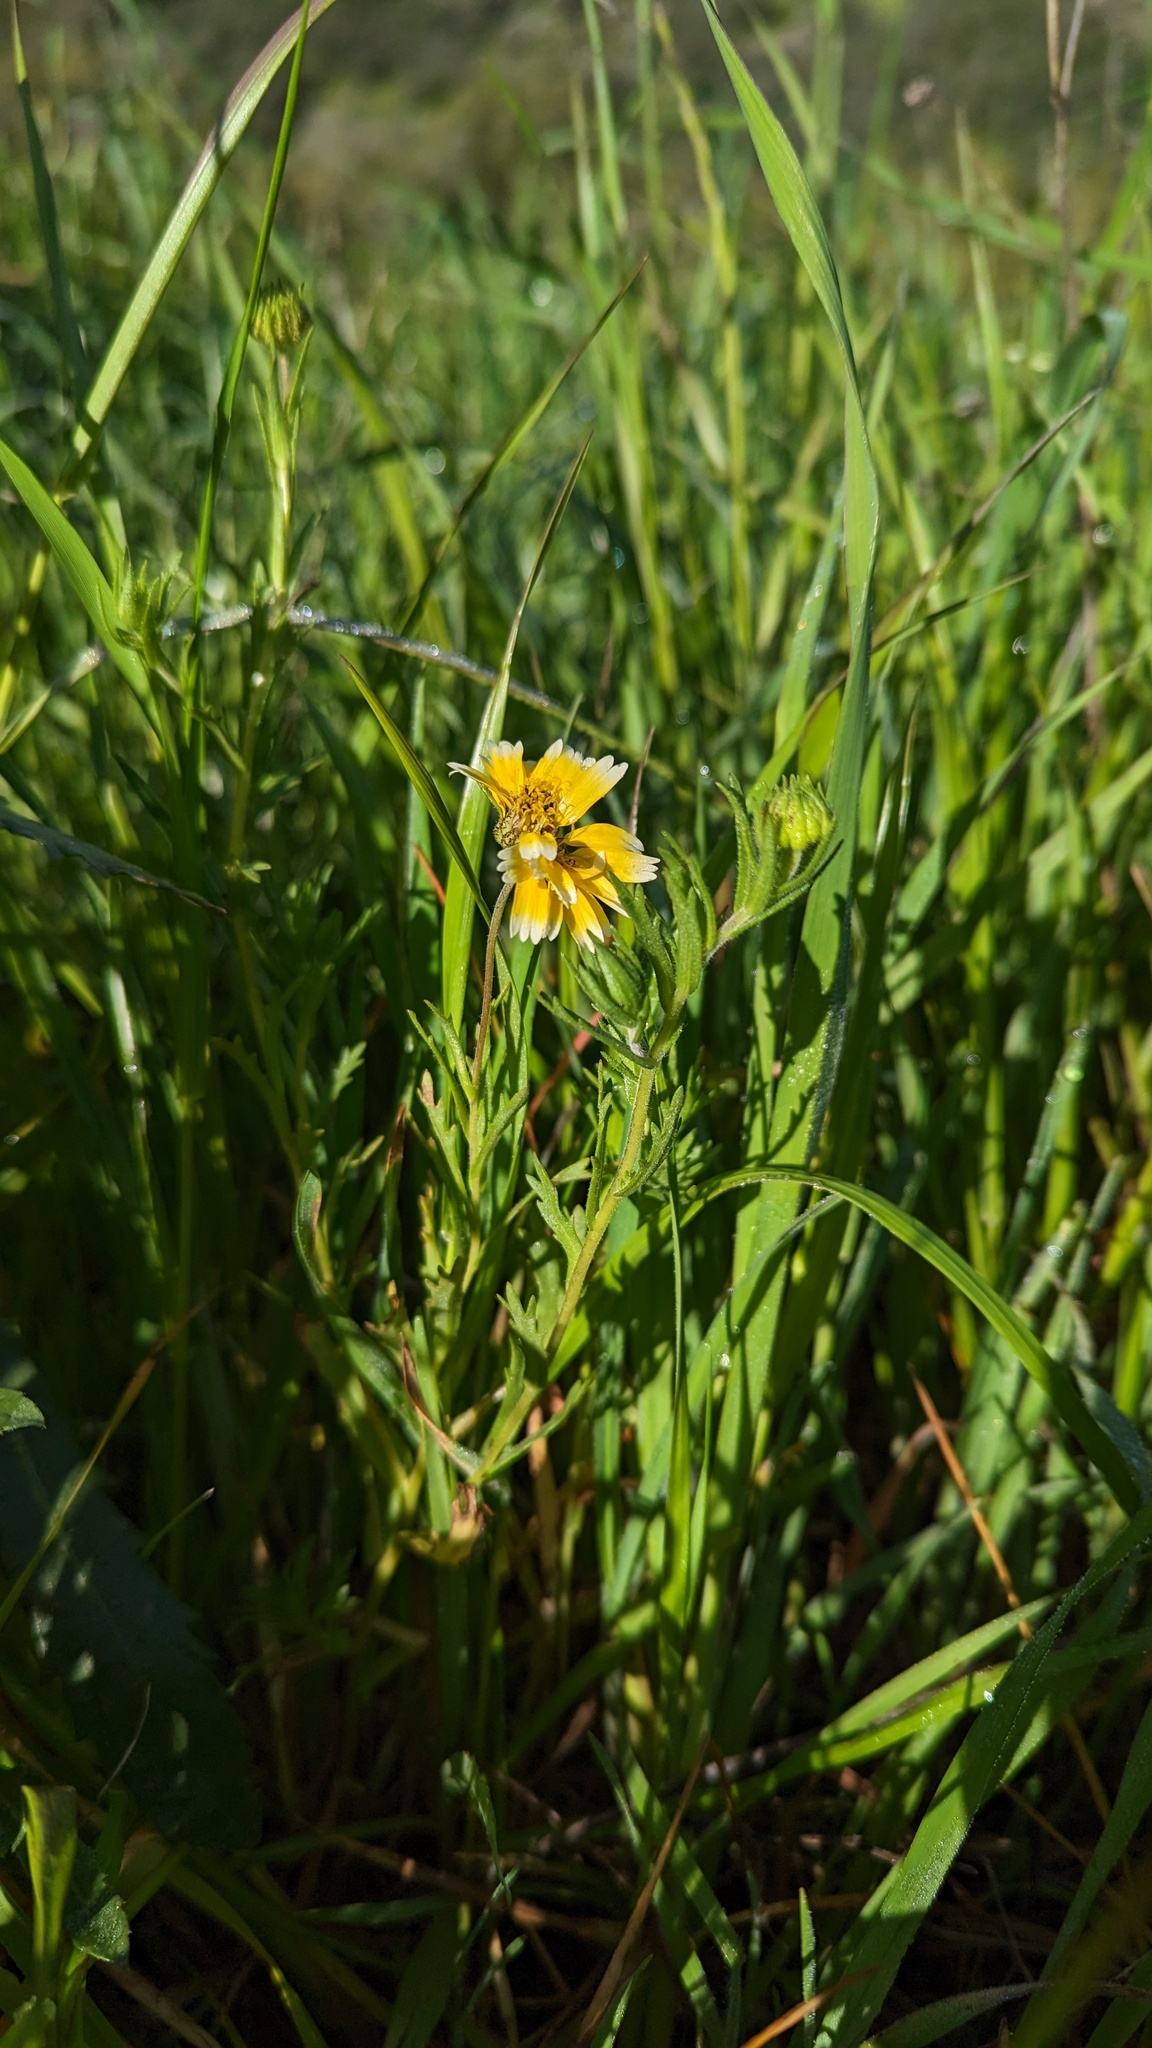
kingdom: Plantae
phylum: Tracheophyta
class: Magnoliopsida
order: Asterales
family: Asteraceae
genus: Layia
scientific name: Layia jonesii
